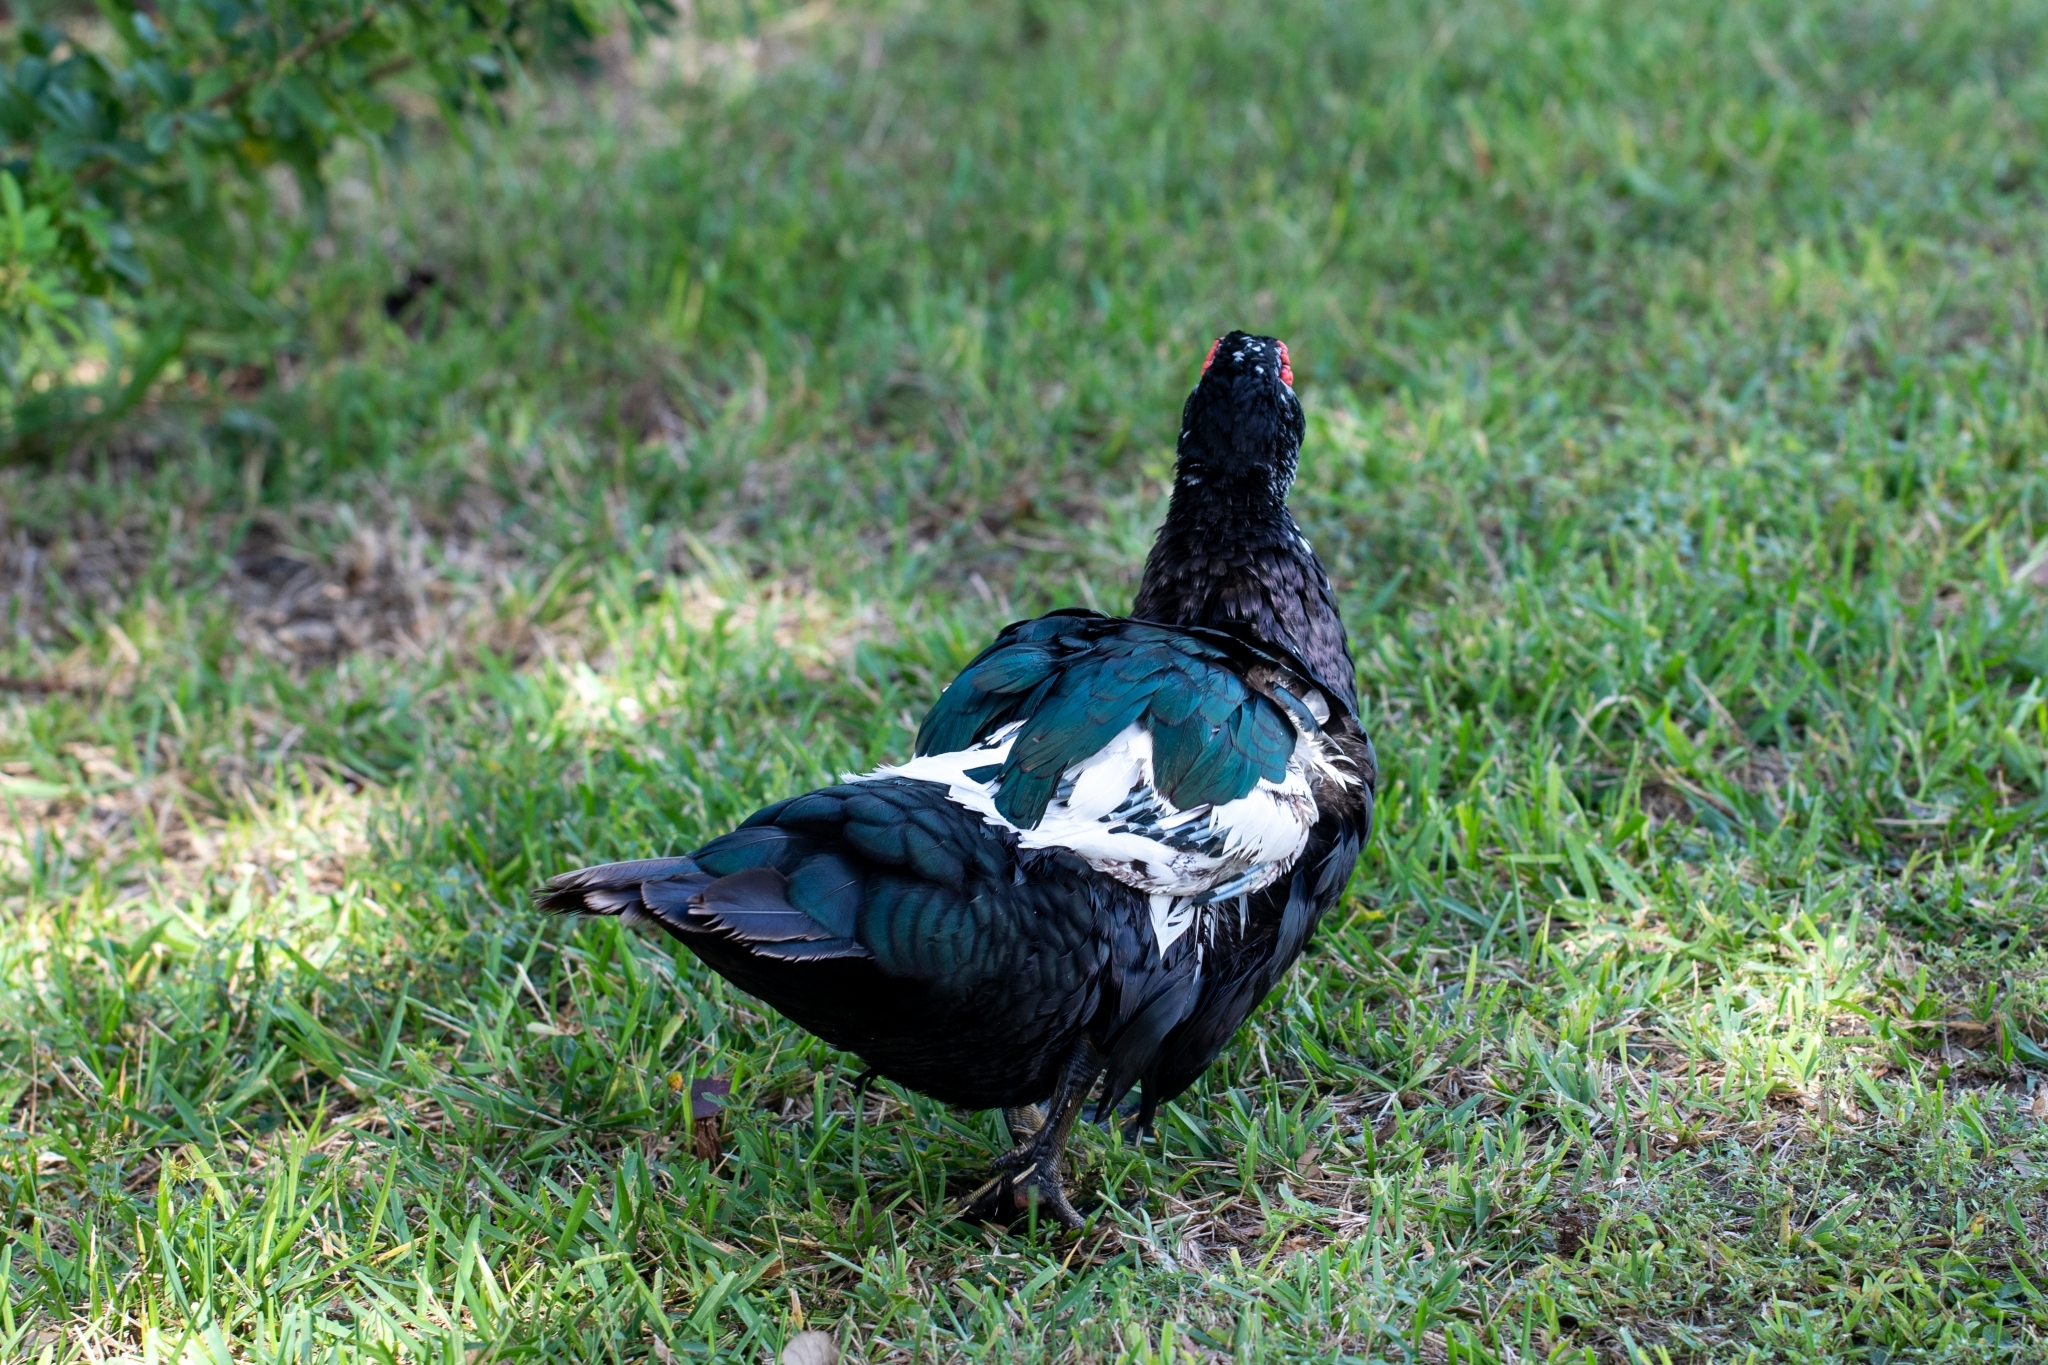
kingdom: Animalia
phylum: Chordata
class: Aves
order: Anseriformes
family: Anatidae
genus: Cairina
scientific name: Cairina moschata
